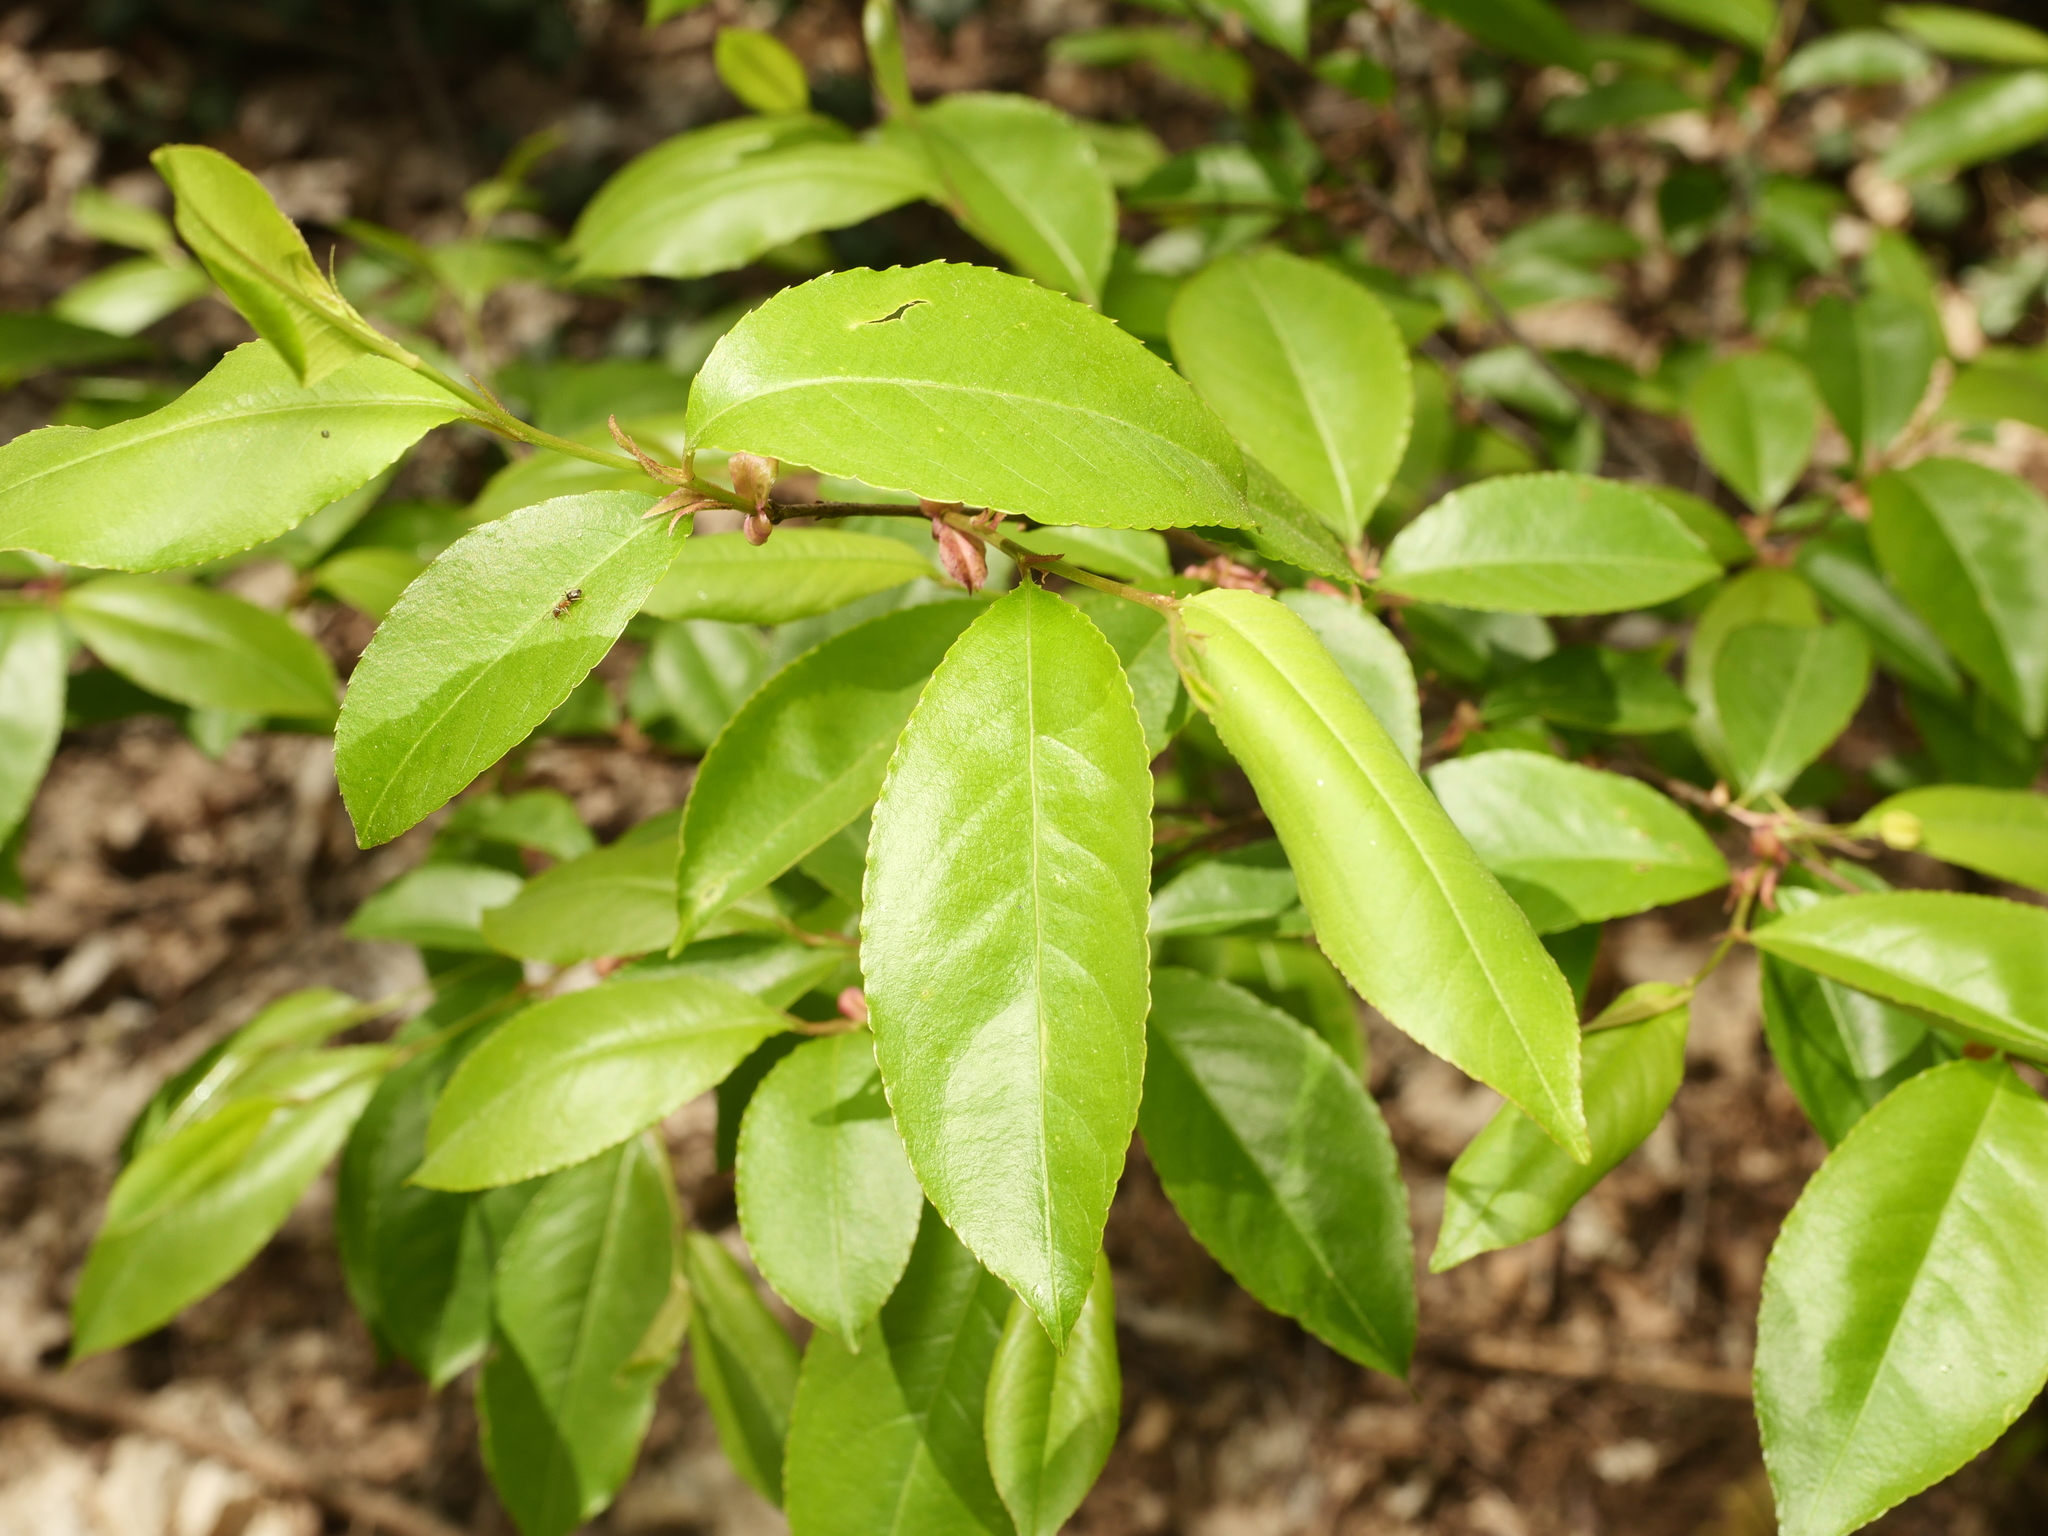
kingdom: Plantae
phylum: Tracheophyta
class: Magnoliopsida
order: Rosales
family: Rosaceae
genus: Prunus
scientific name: Prunus serotina
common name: Black cherry
